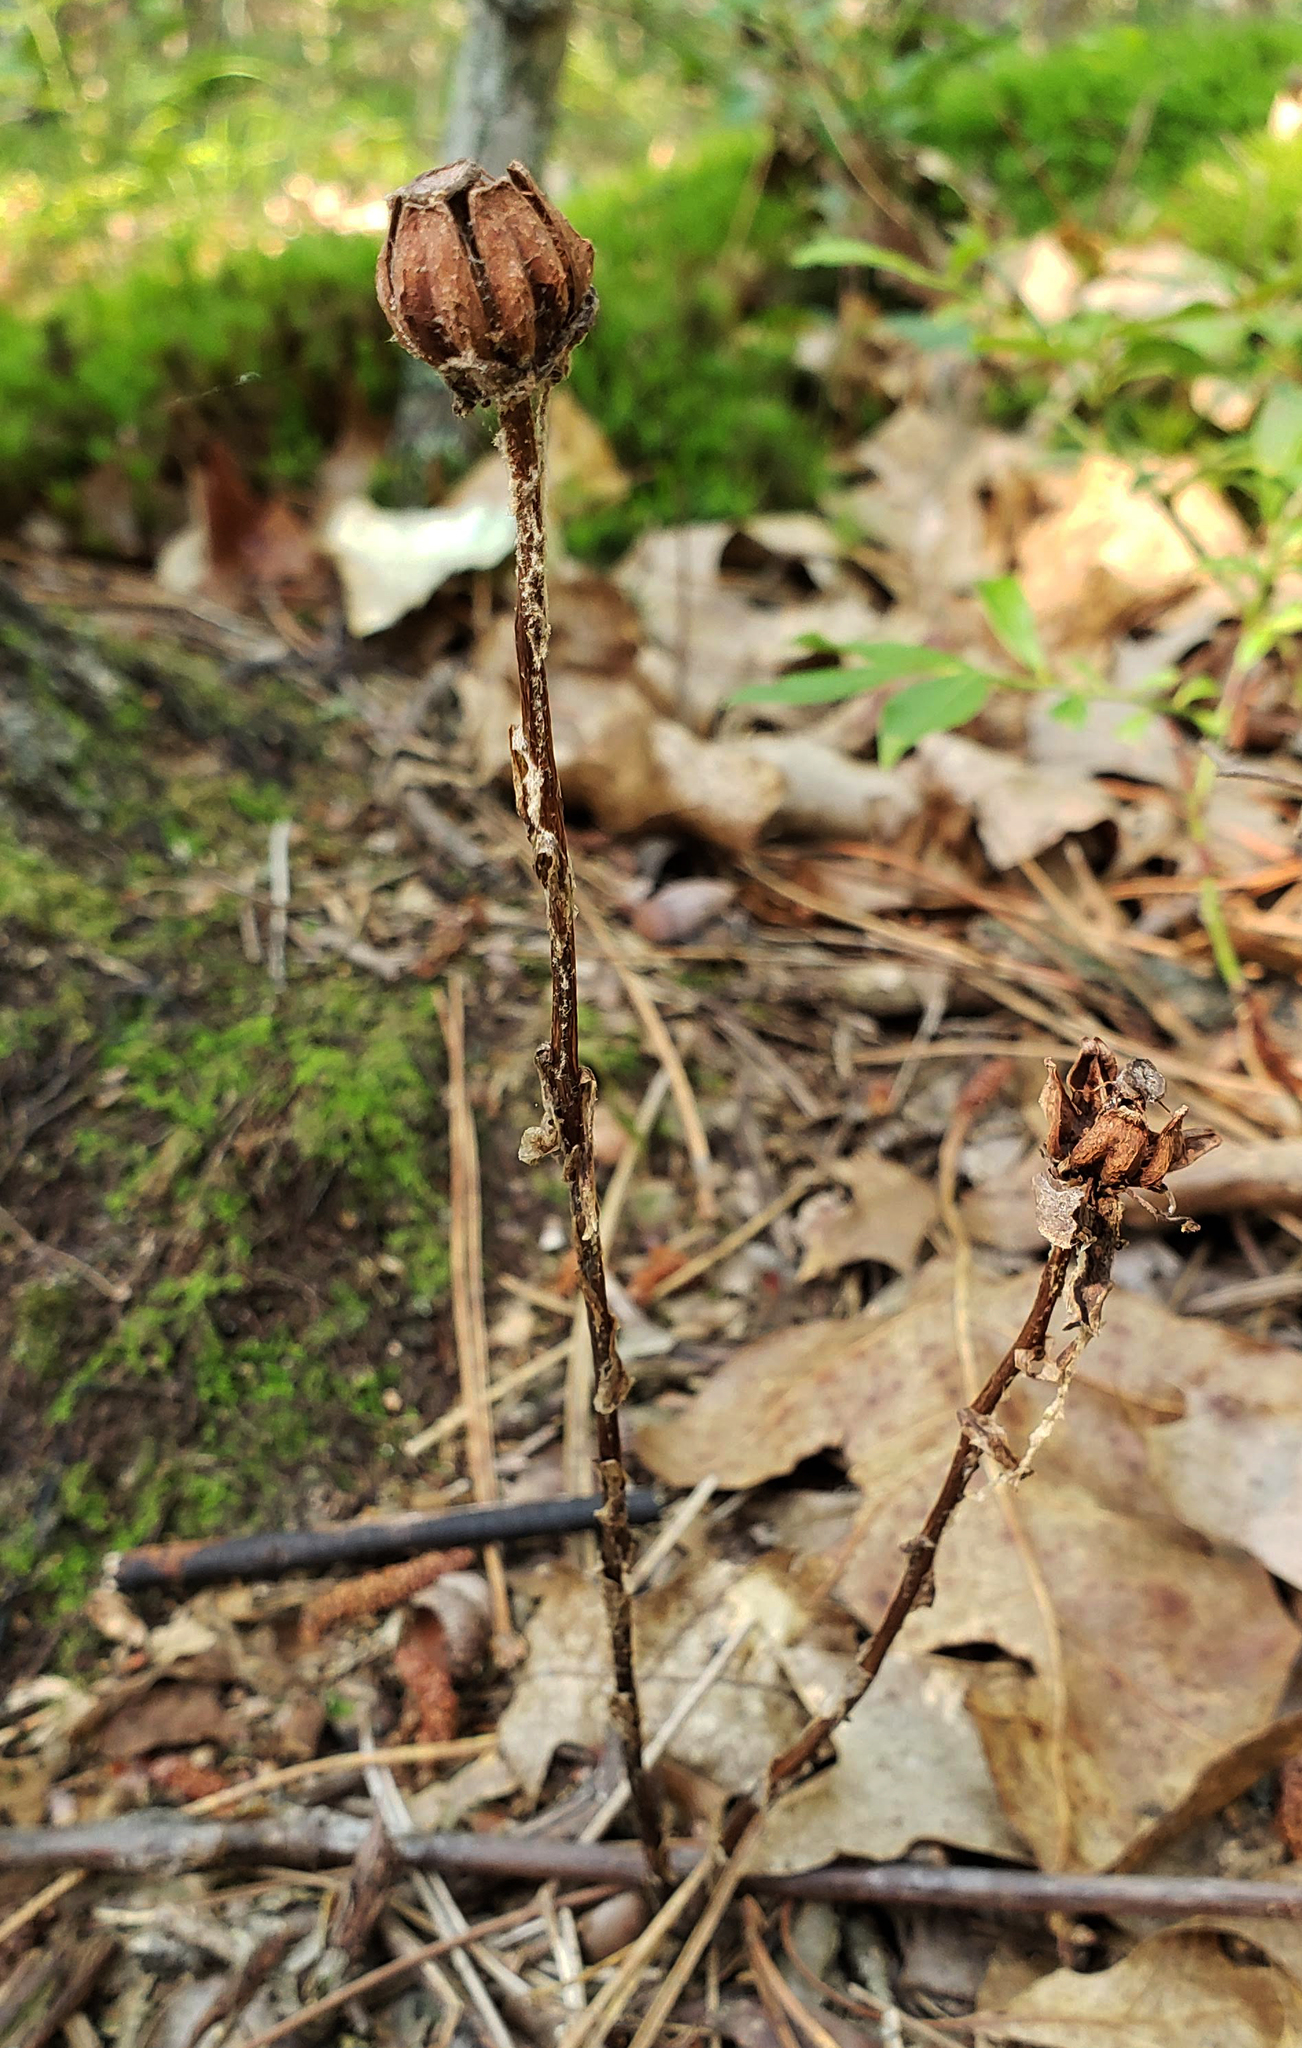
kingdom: Plantae
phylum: Tracheophyta
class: Magnoliopsida
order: Ericales
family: Ericaceae
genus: Monotropa
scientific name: Monotropa uniflora
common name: Convulsion root
